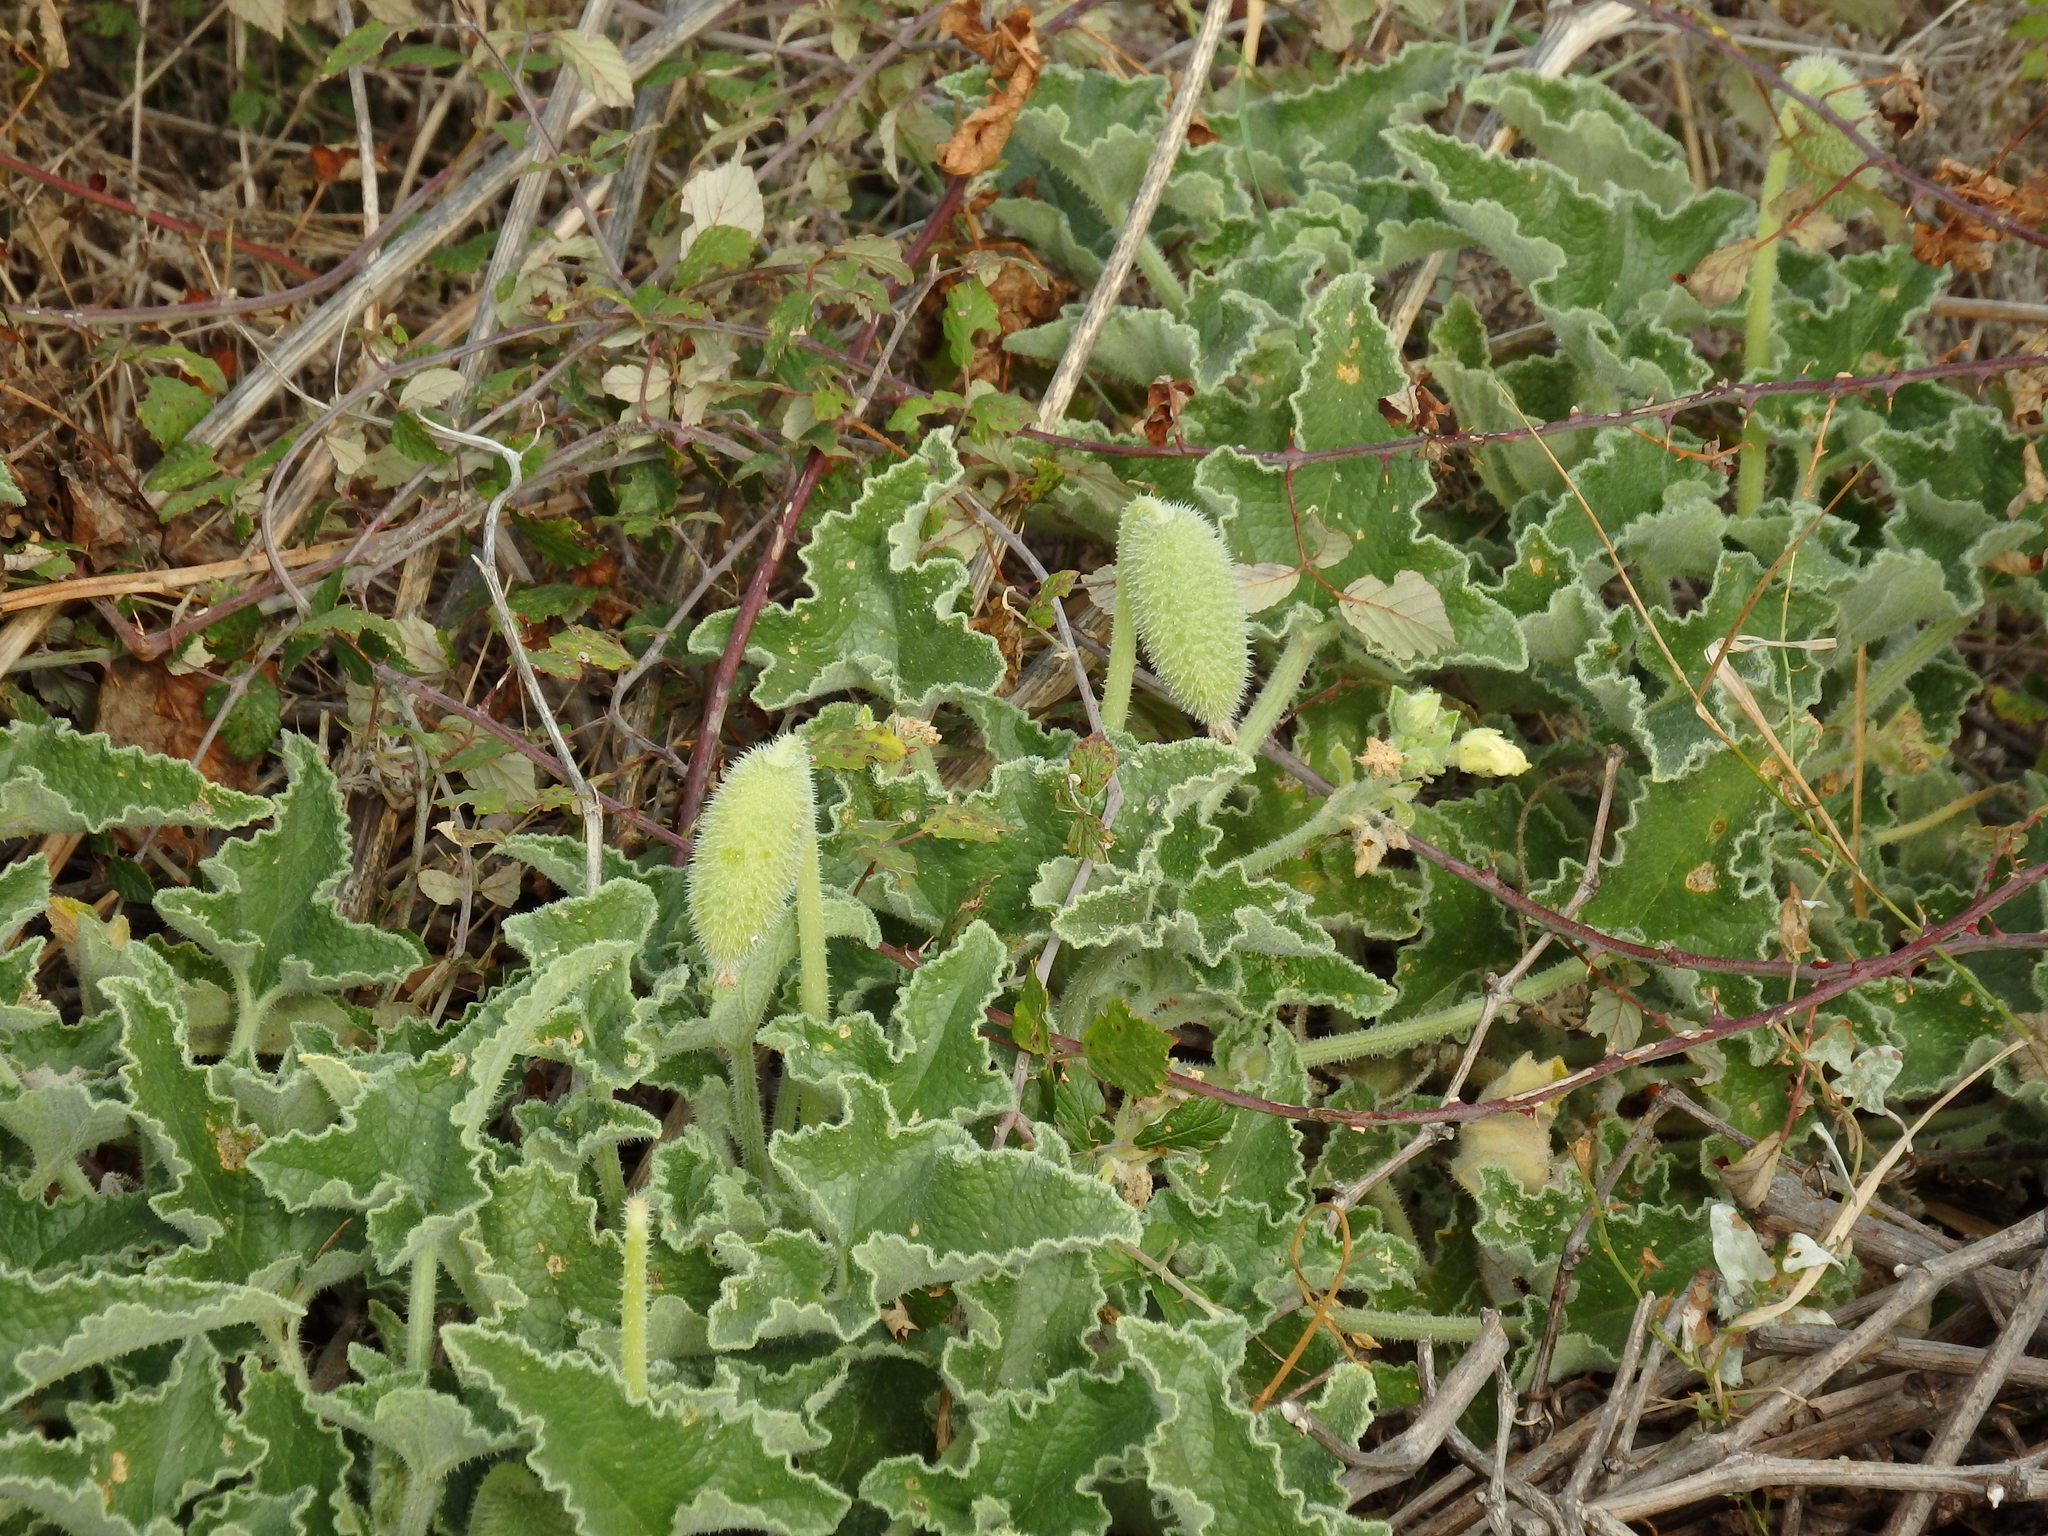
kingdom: Plantae
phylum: Tracheophyta
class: Magnoliopsida
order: Cucurbitales
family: Cucurbitaceae
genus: Ecballium
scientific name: Ecballium elaterium
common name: Squirting cucumber
